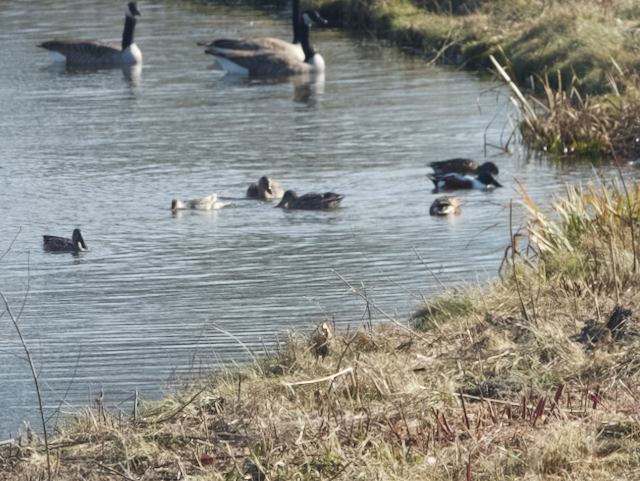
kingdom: Animalia
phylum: Chordata
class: Aves
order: Anseriformes
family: Anatidae
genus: Spatula
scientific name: Spatula clypeata
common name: Northern shoveler
